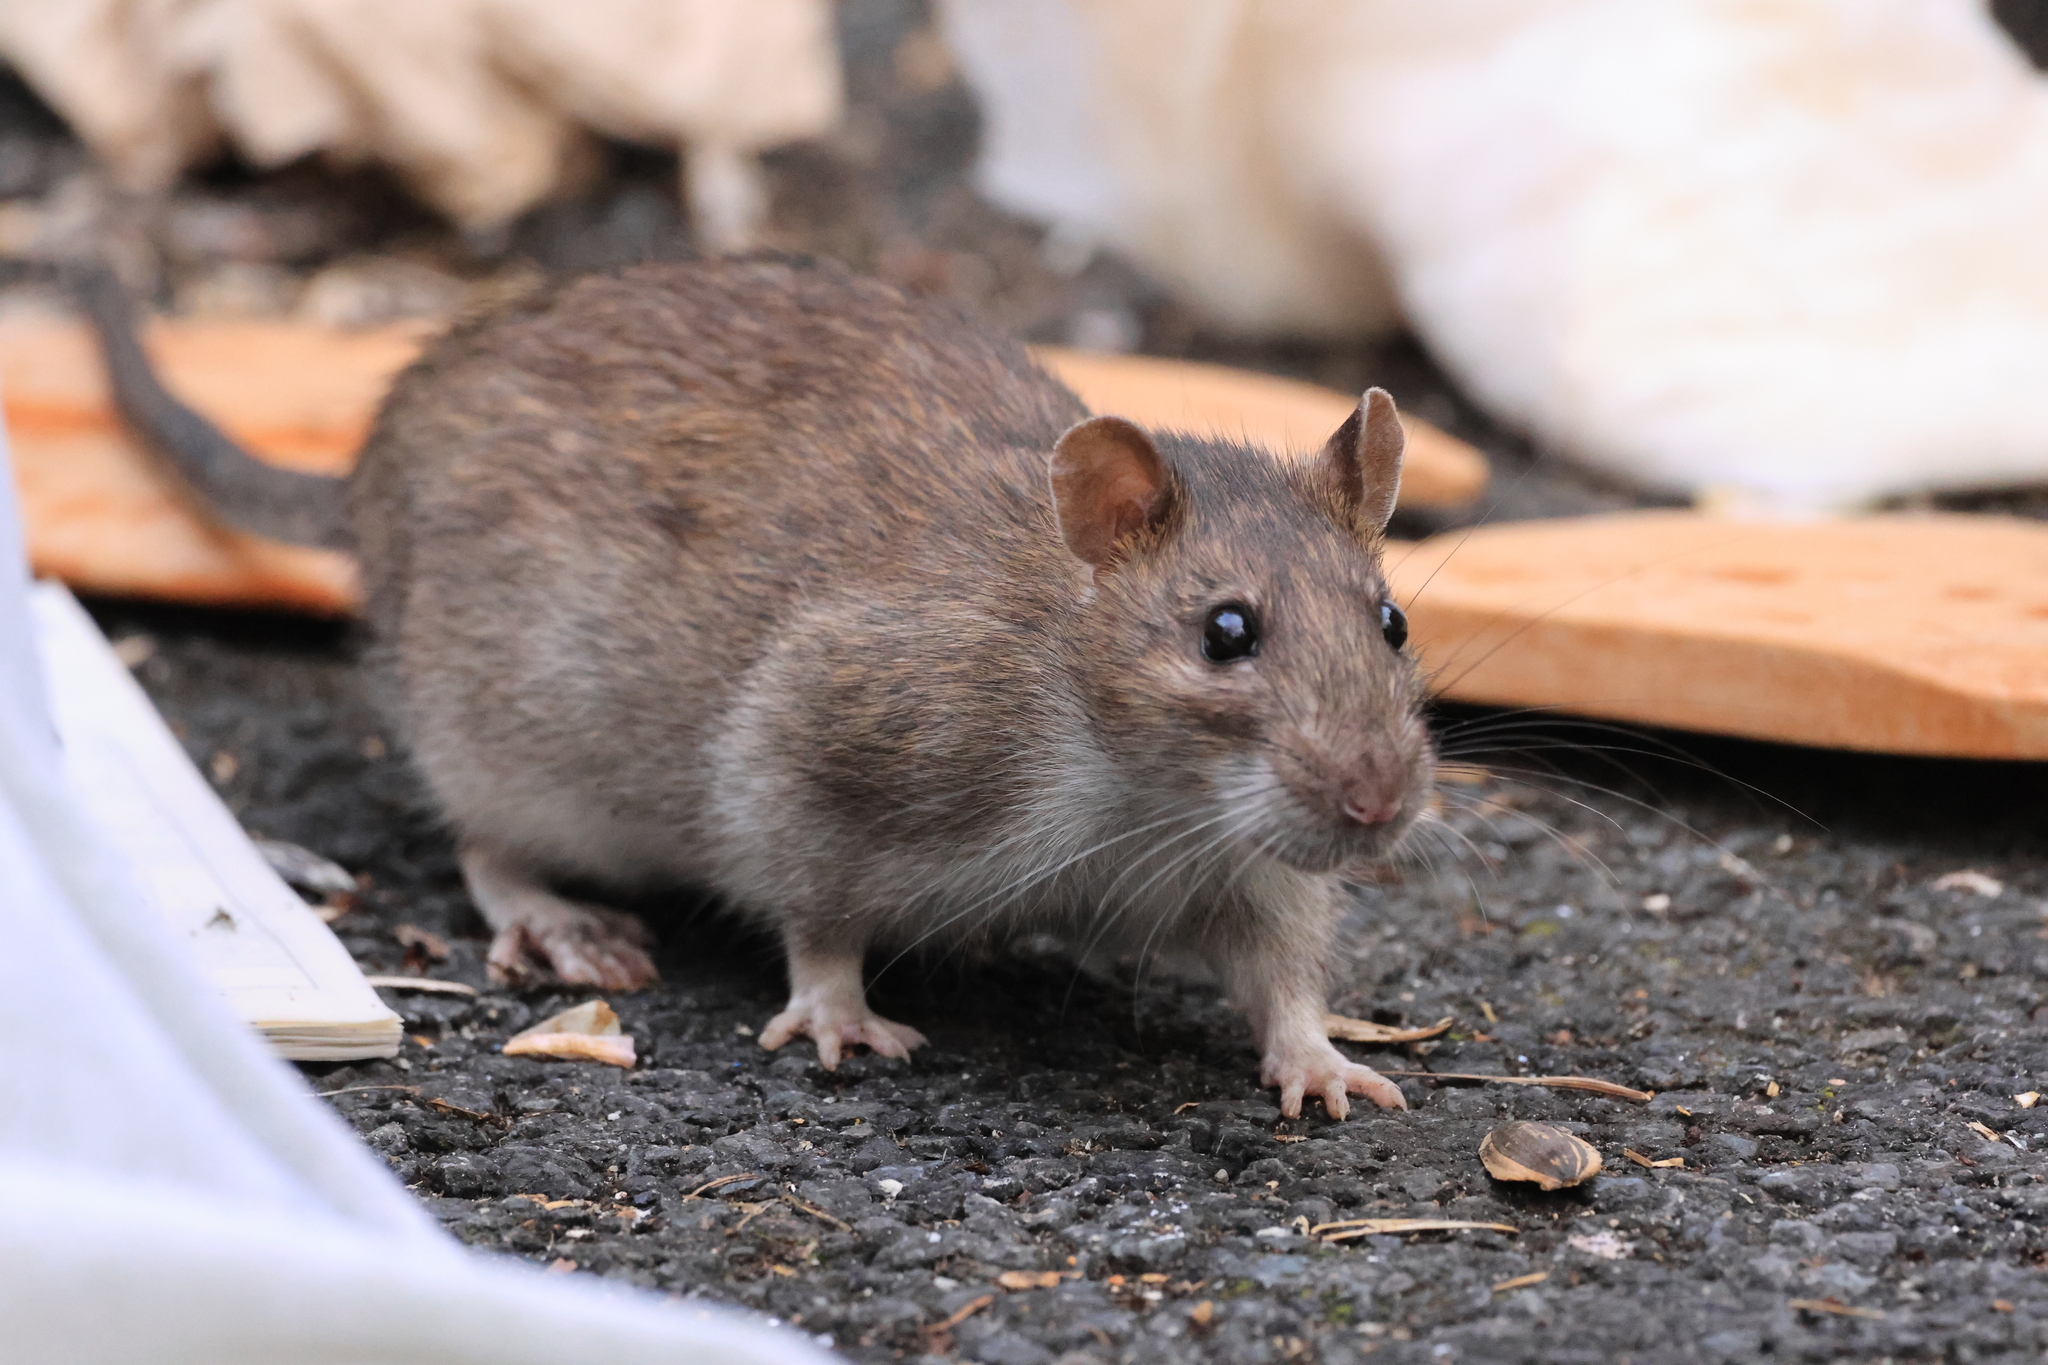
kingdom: Animalia
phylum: Chordata
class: Mammalia
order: Rodentia
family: Muridae
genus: Rattus
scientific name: Rattus norvegicus
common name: Brown rat
